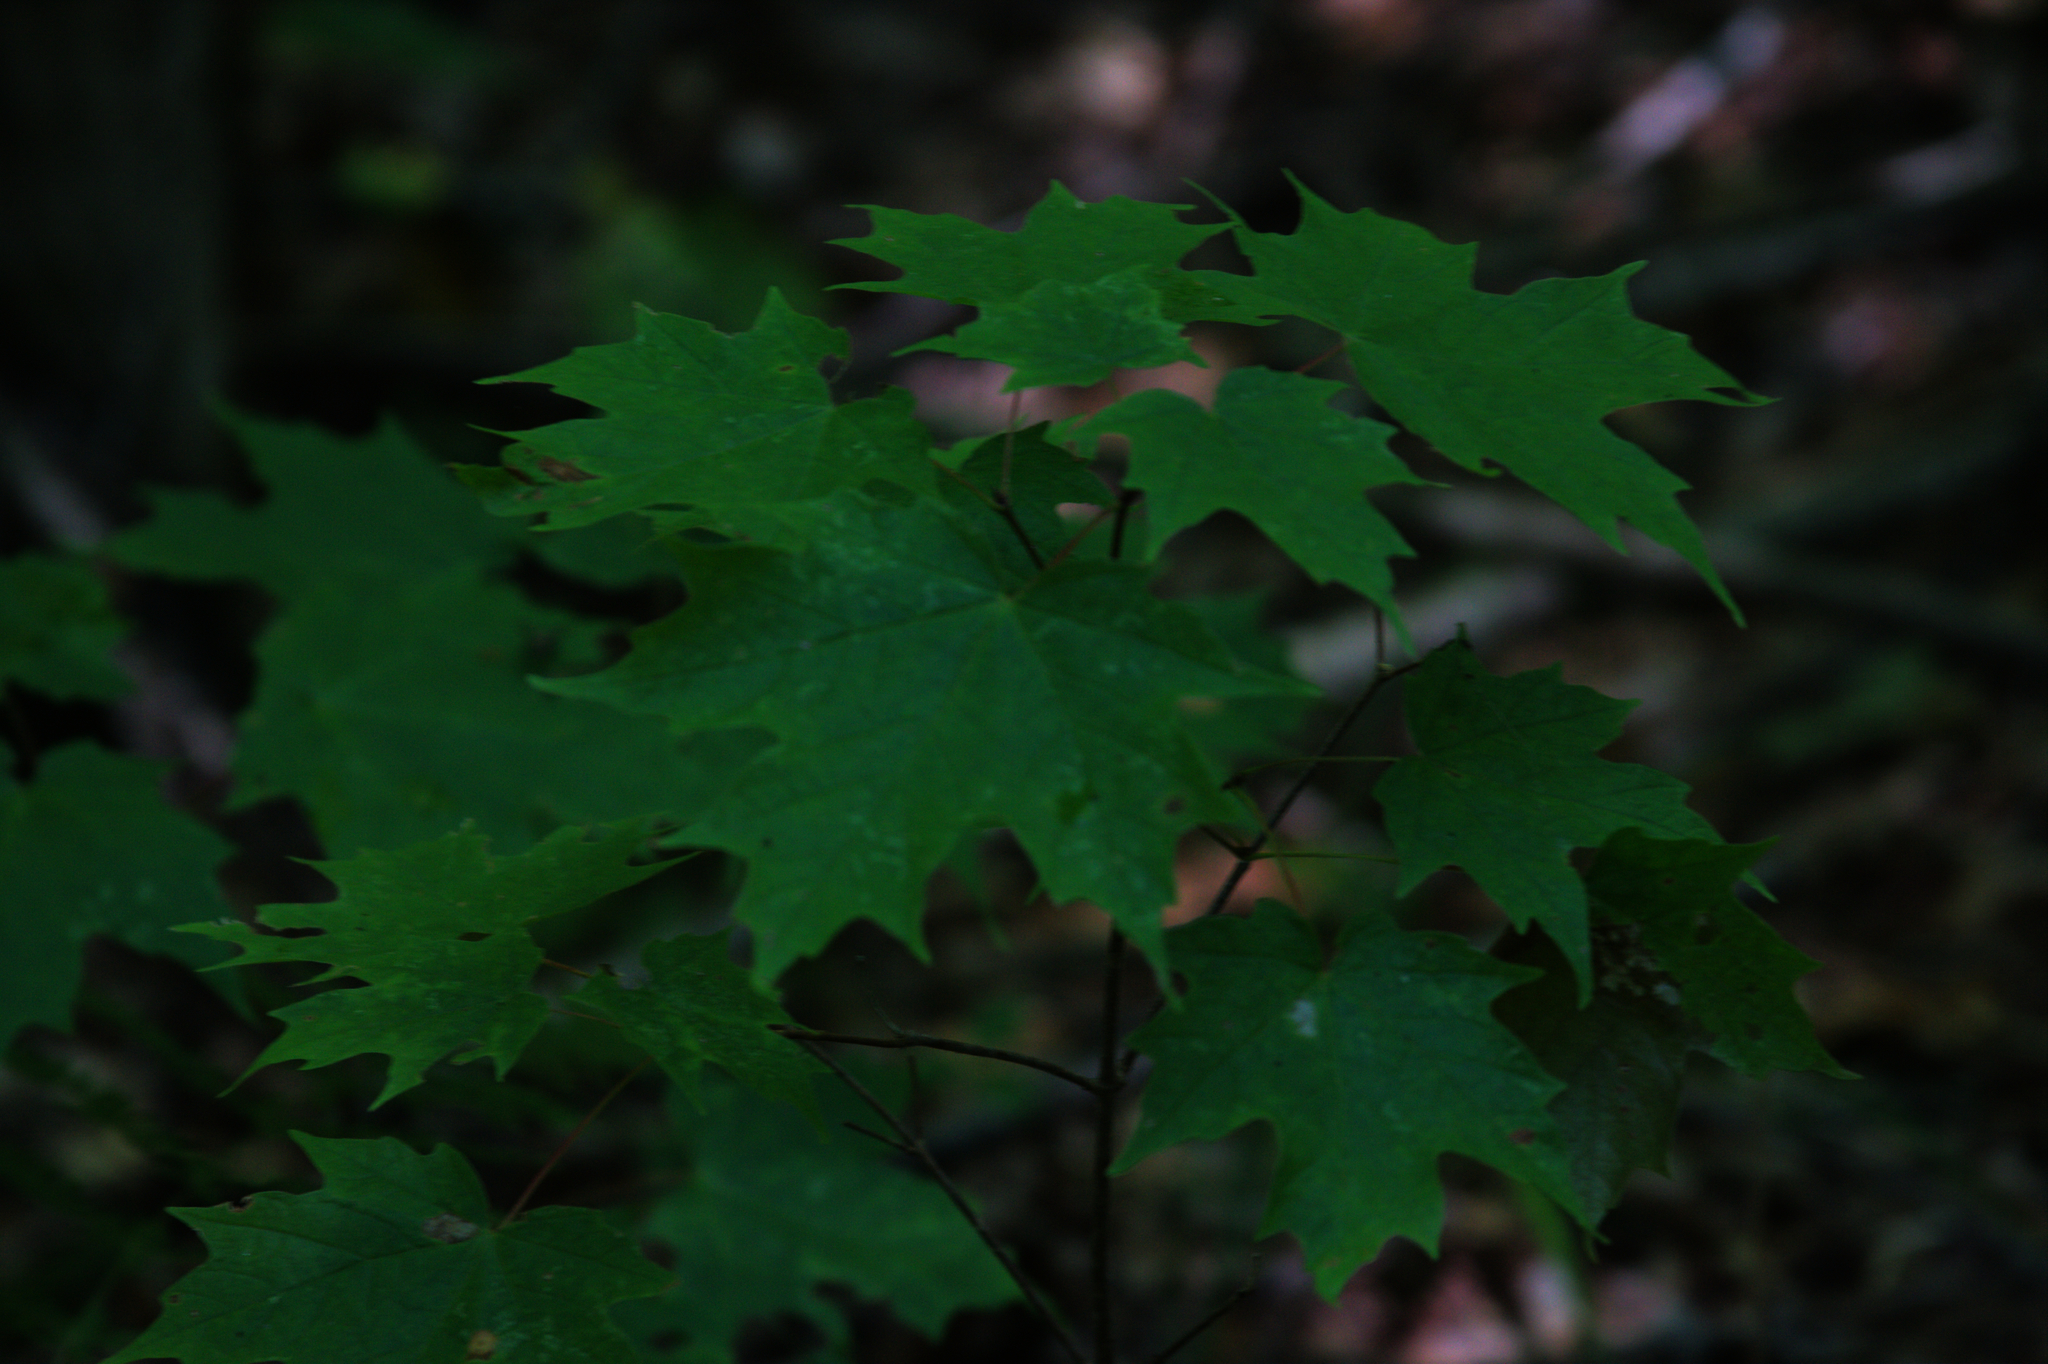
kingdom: Plantae
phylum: Tracheophyta
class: Magnoliopsida
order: Sapindales
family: Sapindaceae
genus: Acer
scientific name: Acer saccharum
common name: Sugar maple
